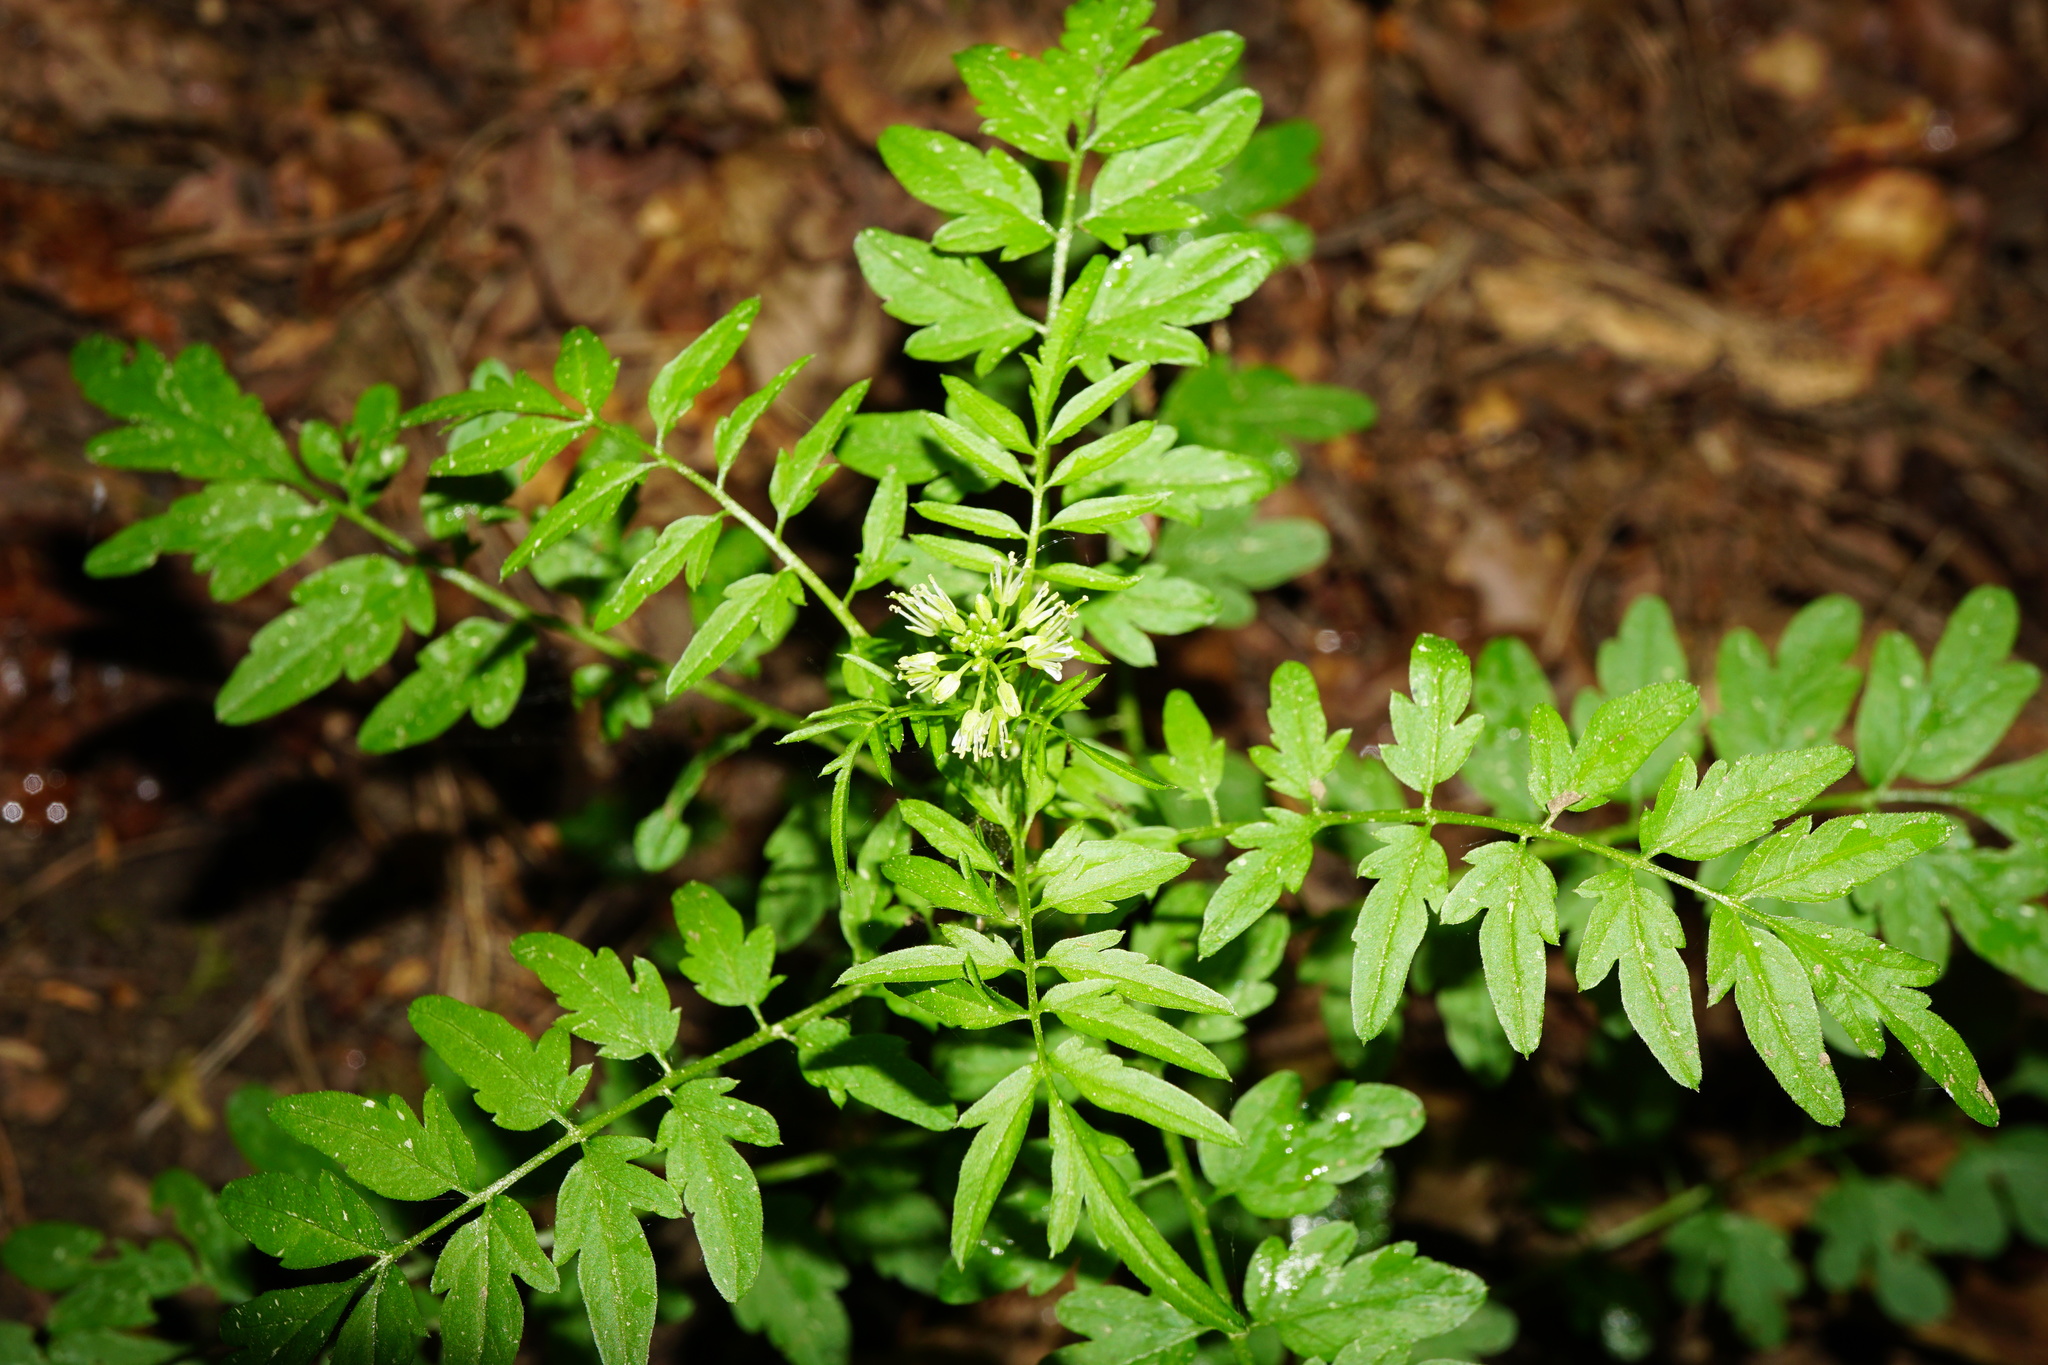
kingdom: Plantae
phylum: Tracheophyta
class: Magnoliopsida
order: Brassicales
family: Brassicaceae
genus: Cardamine
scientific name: Cardamine impatiens
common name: Narrow-leaved bitter-cress
